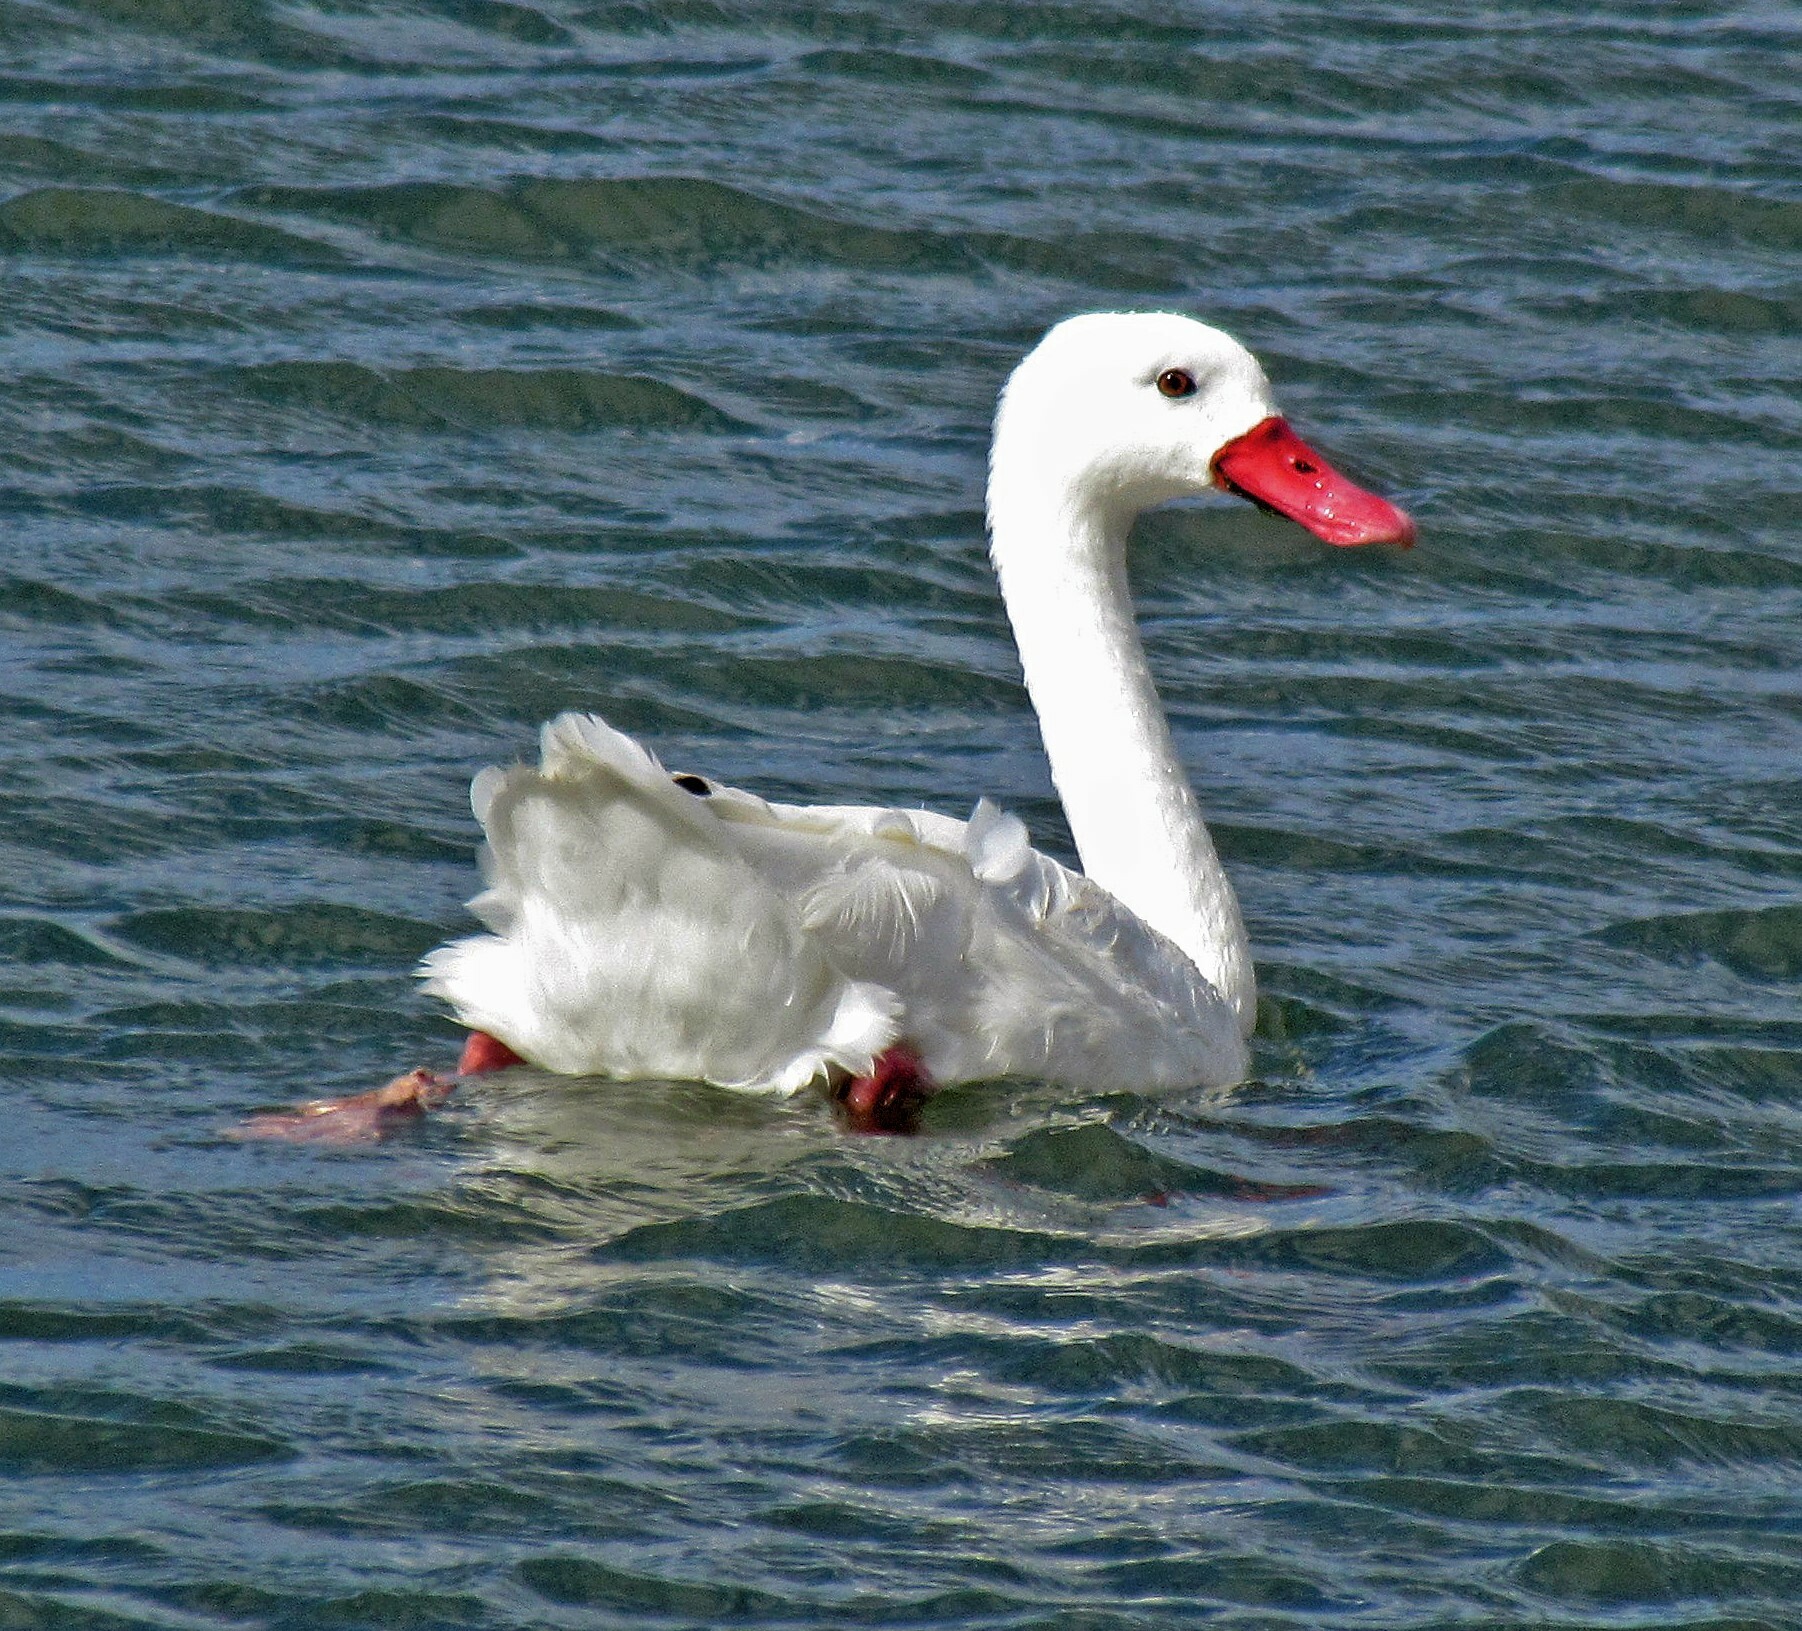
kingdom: Animalia
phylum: Chordata
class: Aves
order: Anseriformes
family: Anatidae
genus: Coscoroba
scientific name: Coscoroba coscoroba
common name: Coscoroba swan
